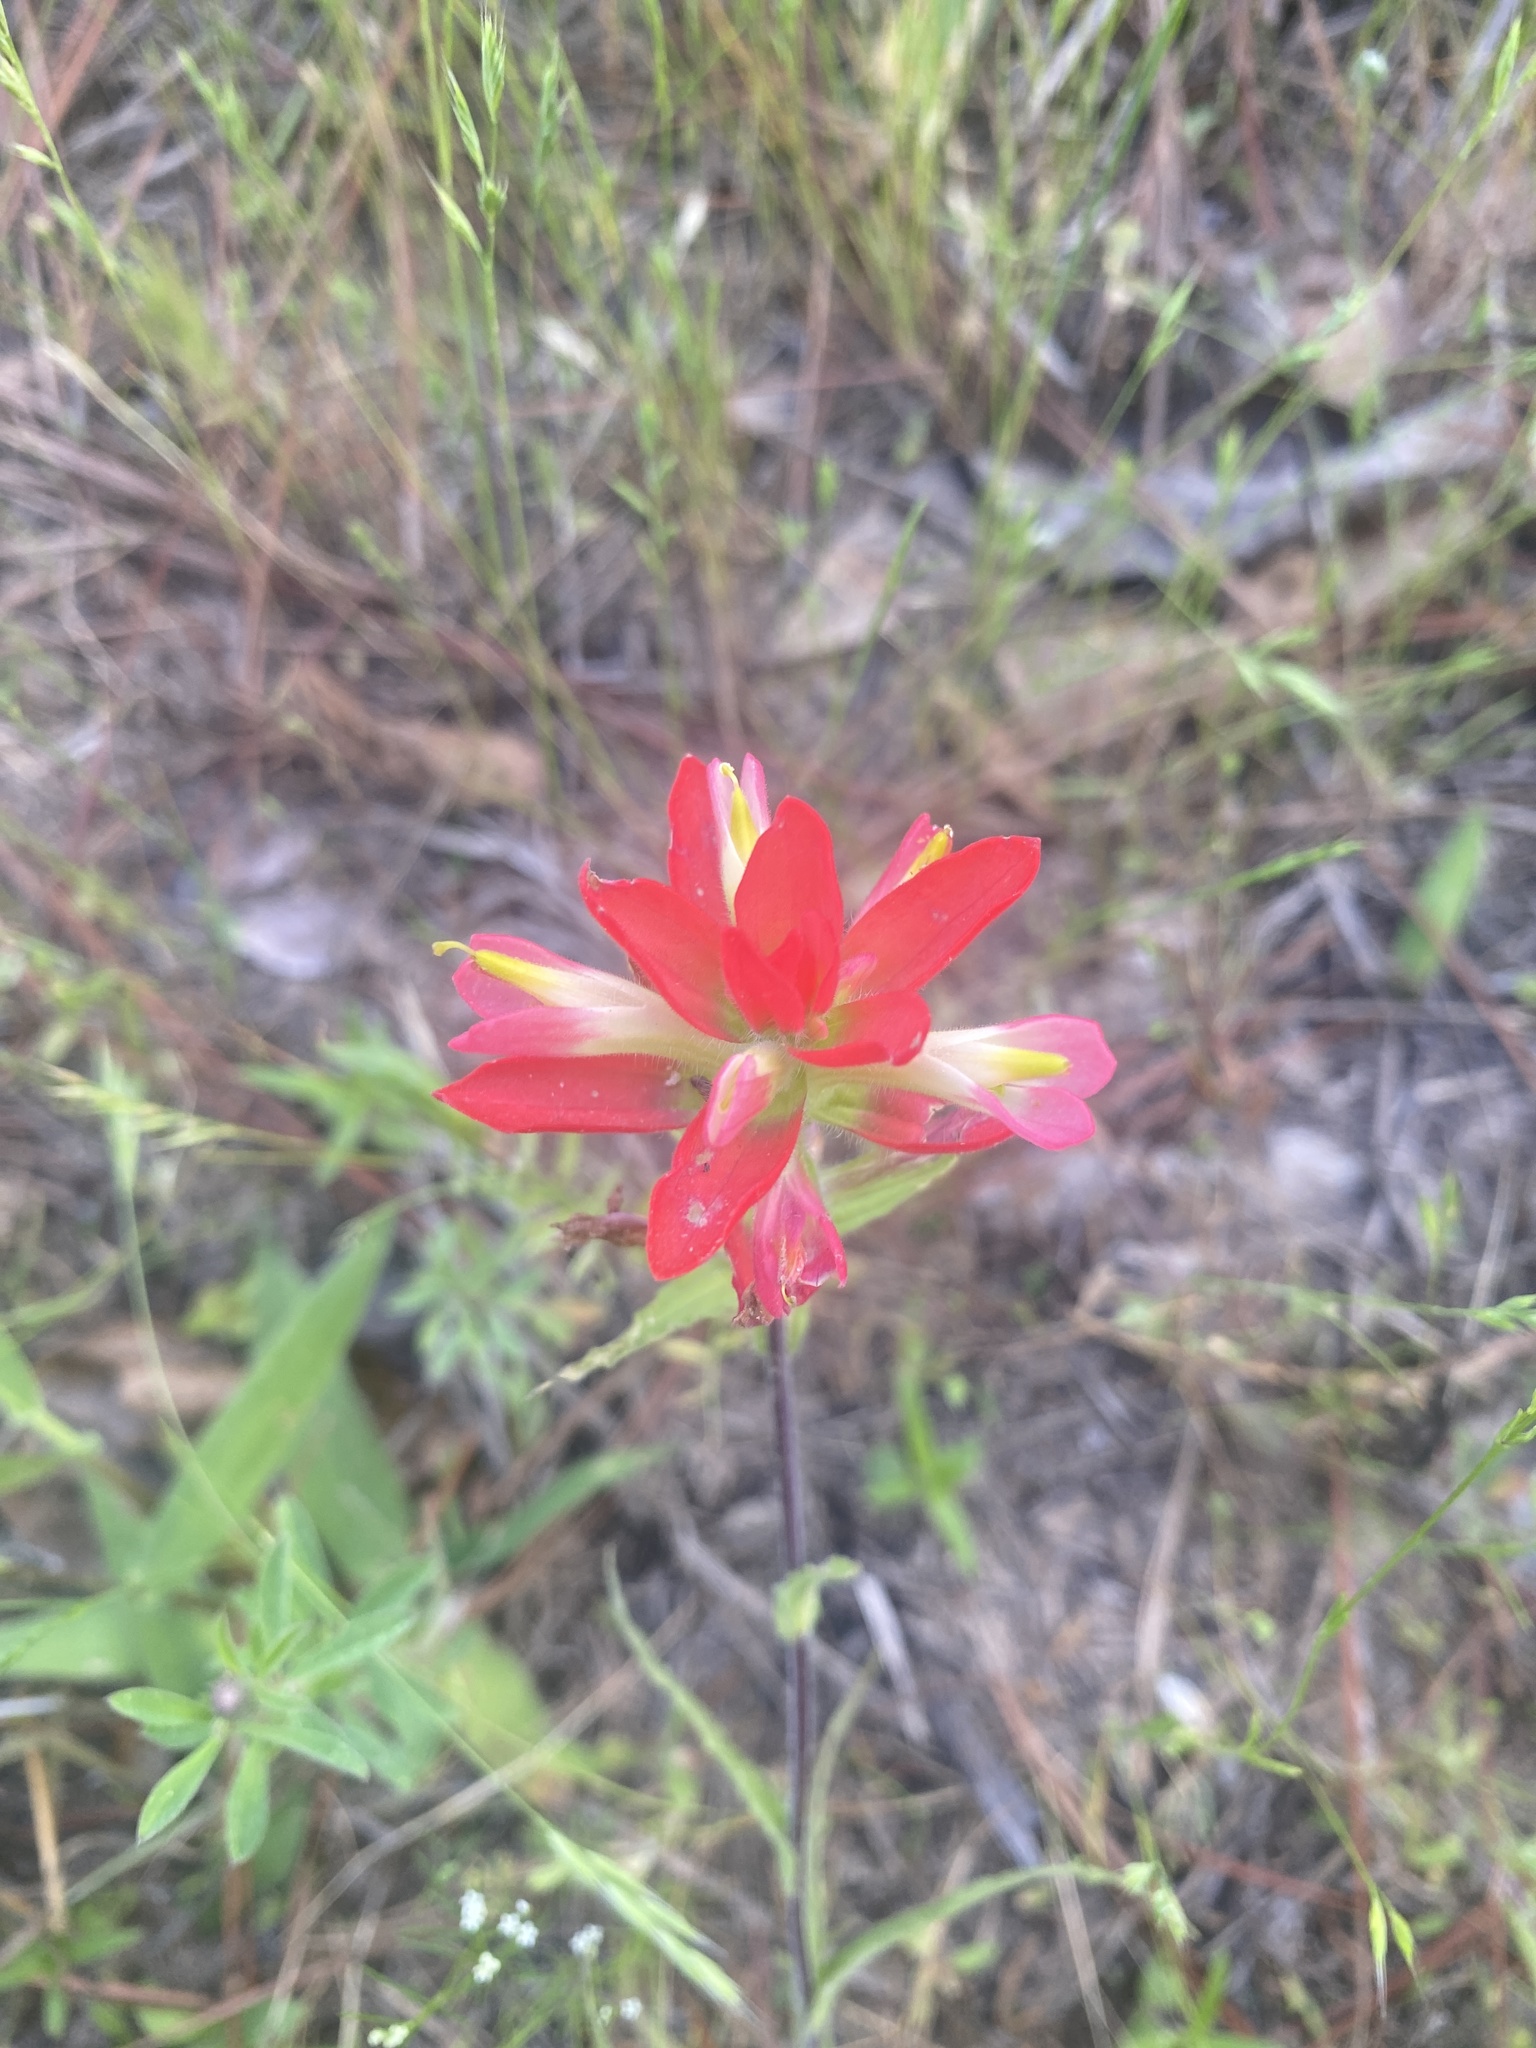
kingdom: Plantae
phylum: Tracheophyta
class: Magnoliopsida
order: Lamiales
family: Orobanchaceae
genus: Castilleja
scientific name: Castilleja indivisa
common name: Texas paintbrush
